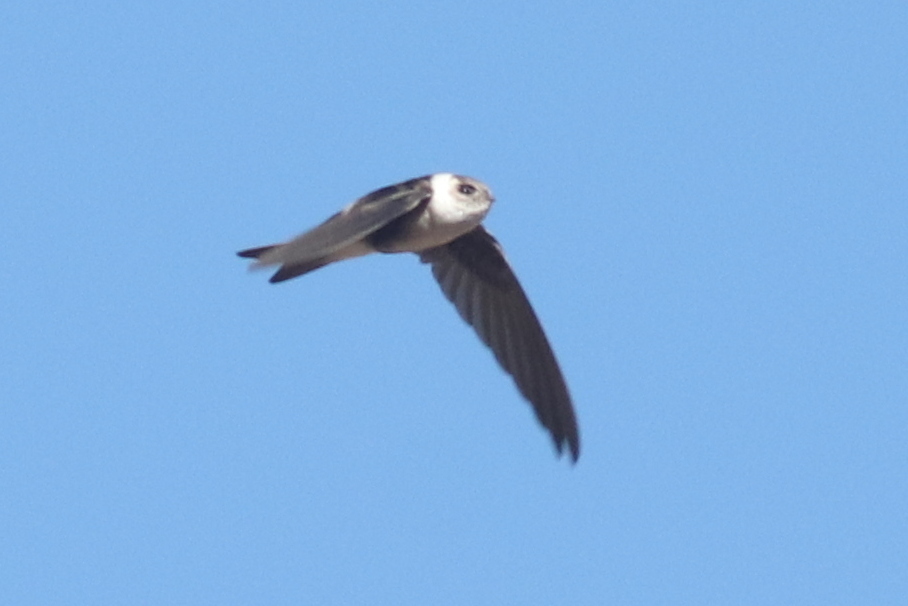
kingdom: Animalia
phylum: Chordata
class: Aves
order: Apodiformes
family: Apodidae
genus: Aeronautes
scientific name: Aeronautes andecolus
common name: Andean swift
